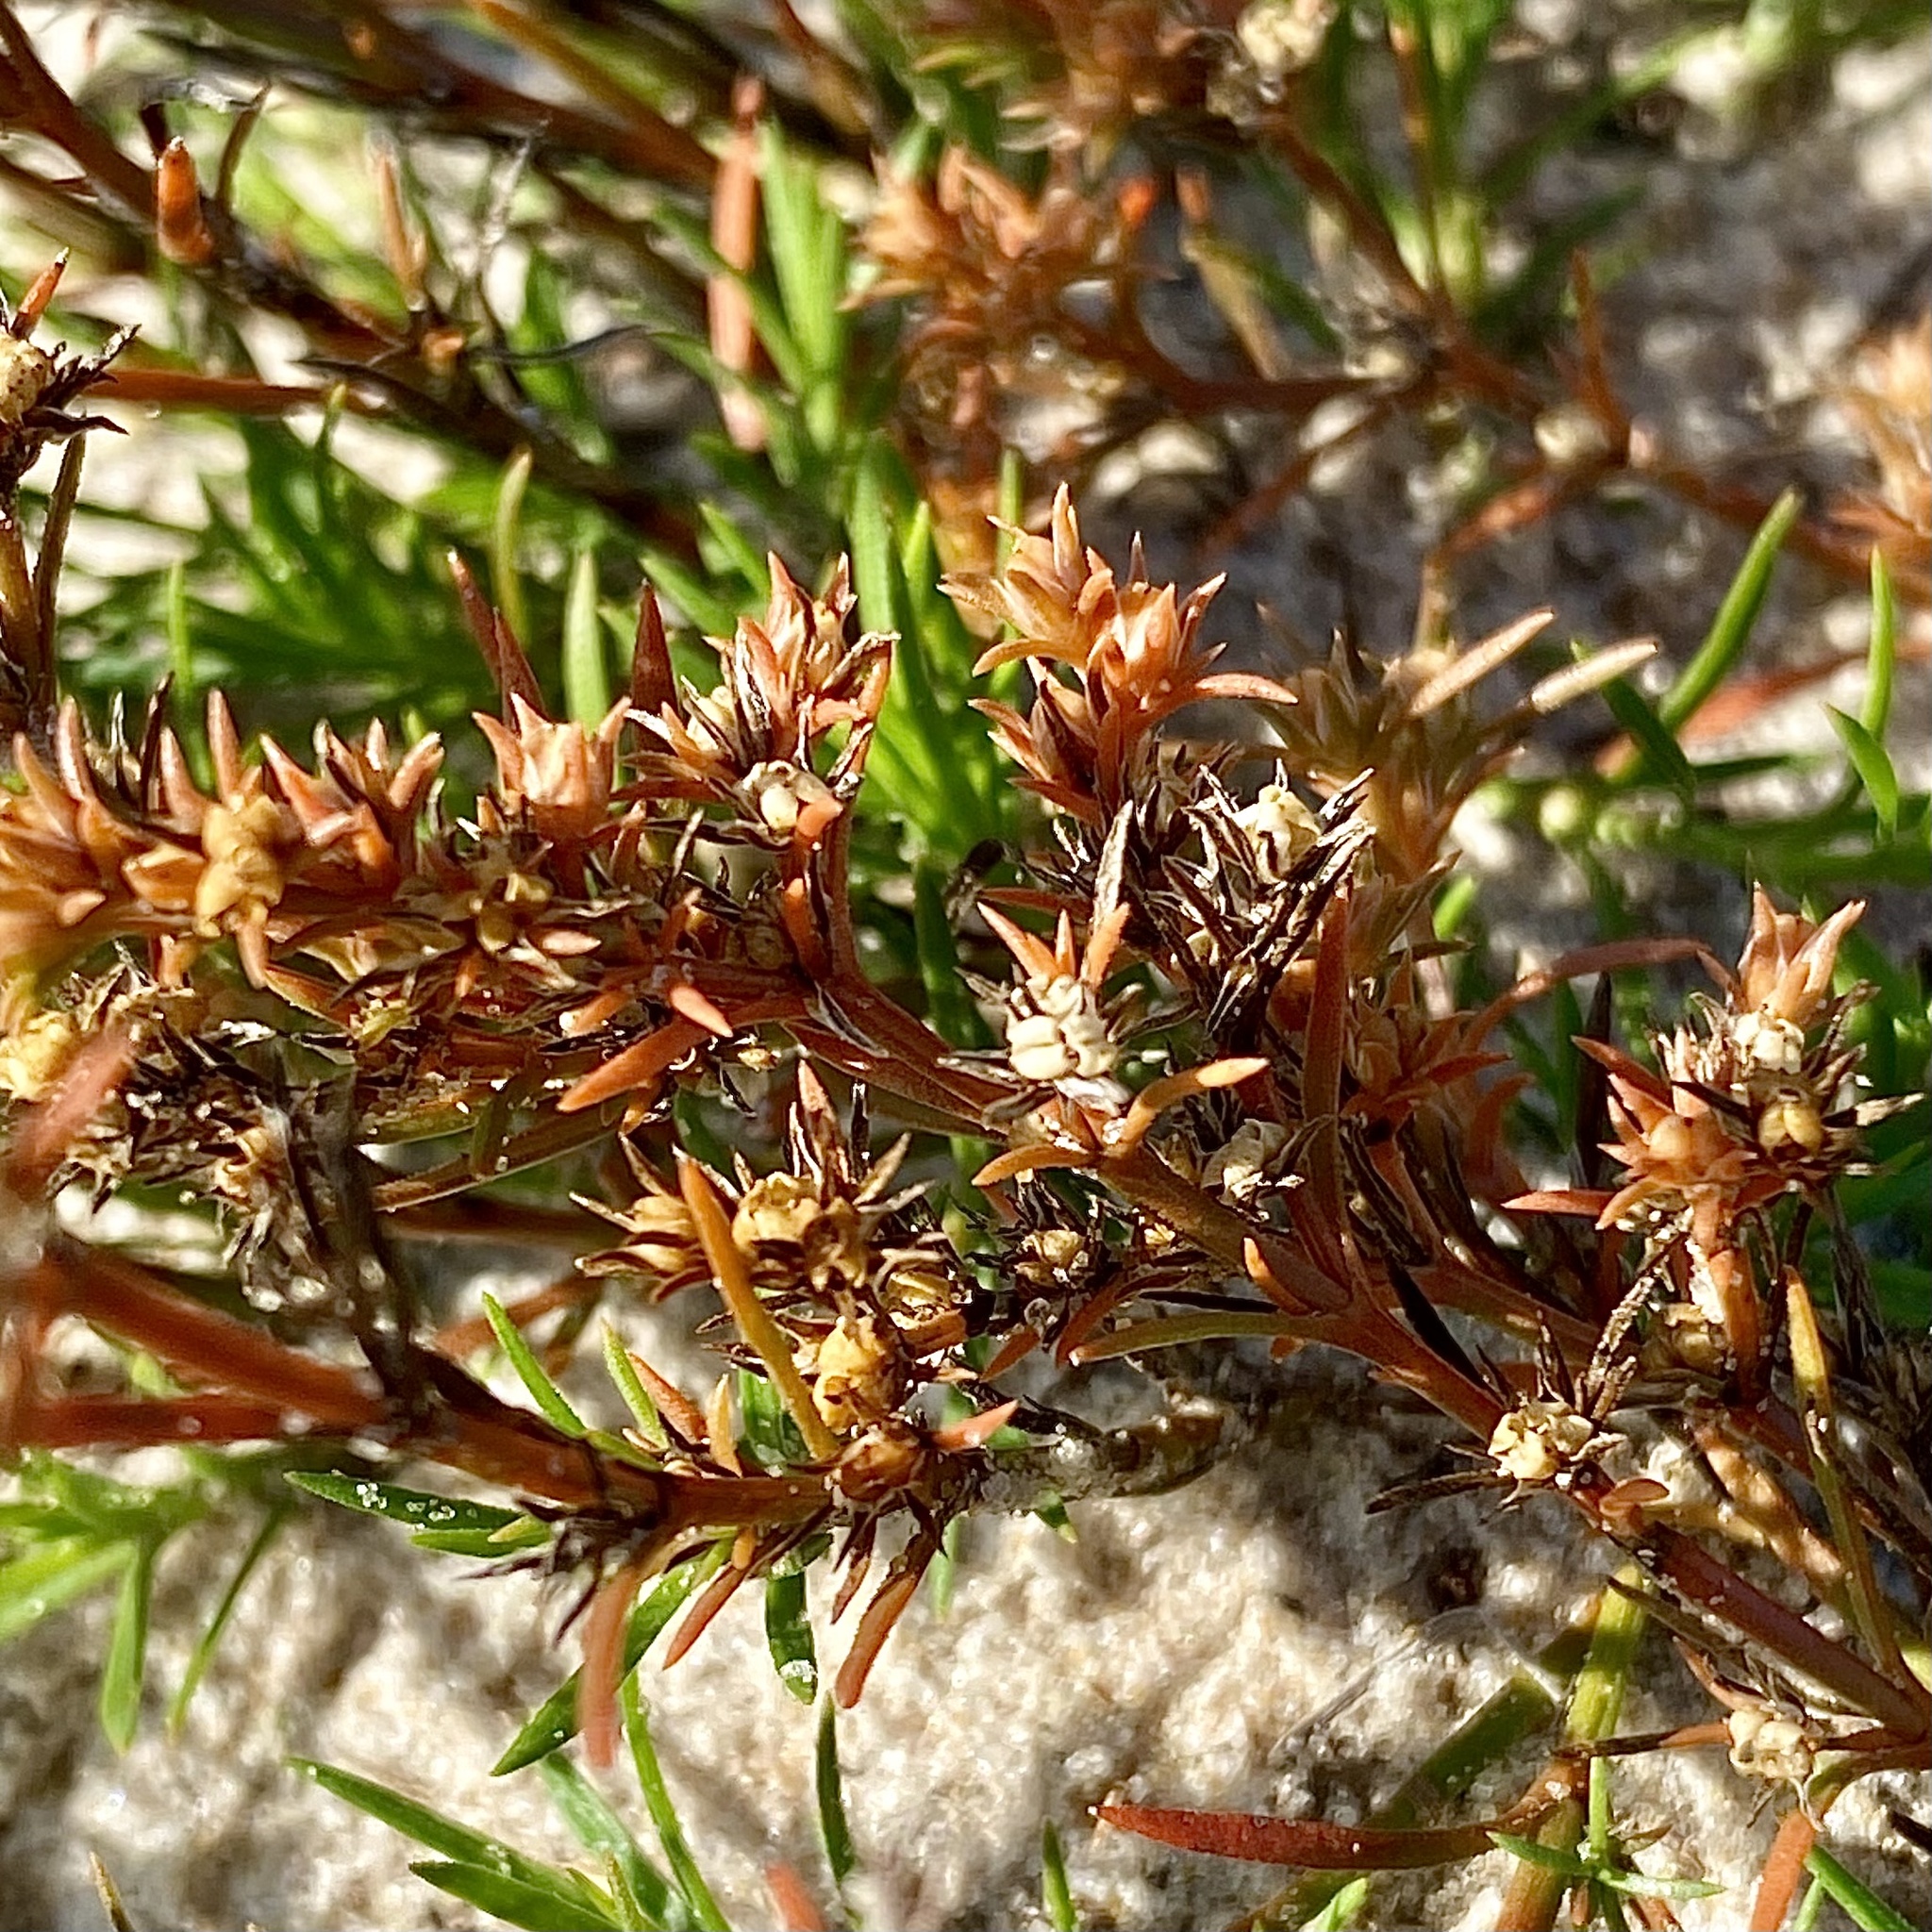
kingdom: Plantae
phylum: Tracheophyta
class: Magnoliopsida
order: Lamiales
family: Tetrachondraceae
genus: Polypremum
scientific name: Polypremum procumbens
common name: Juniper-leaf
